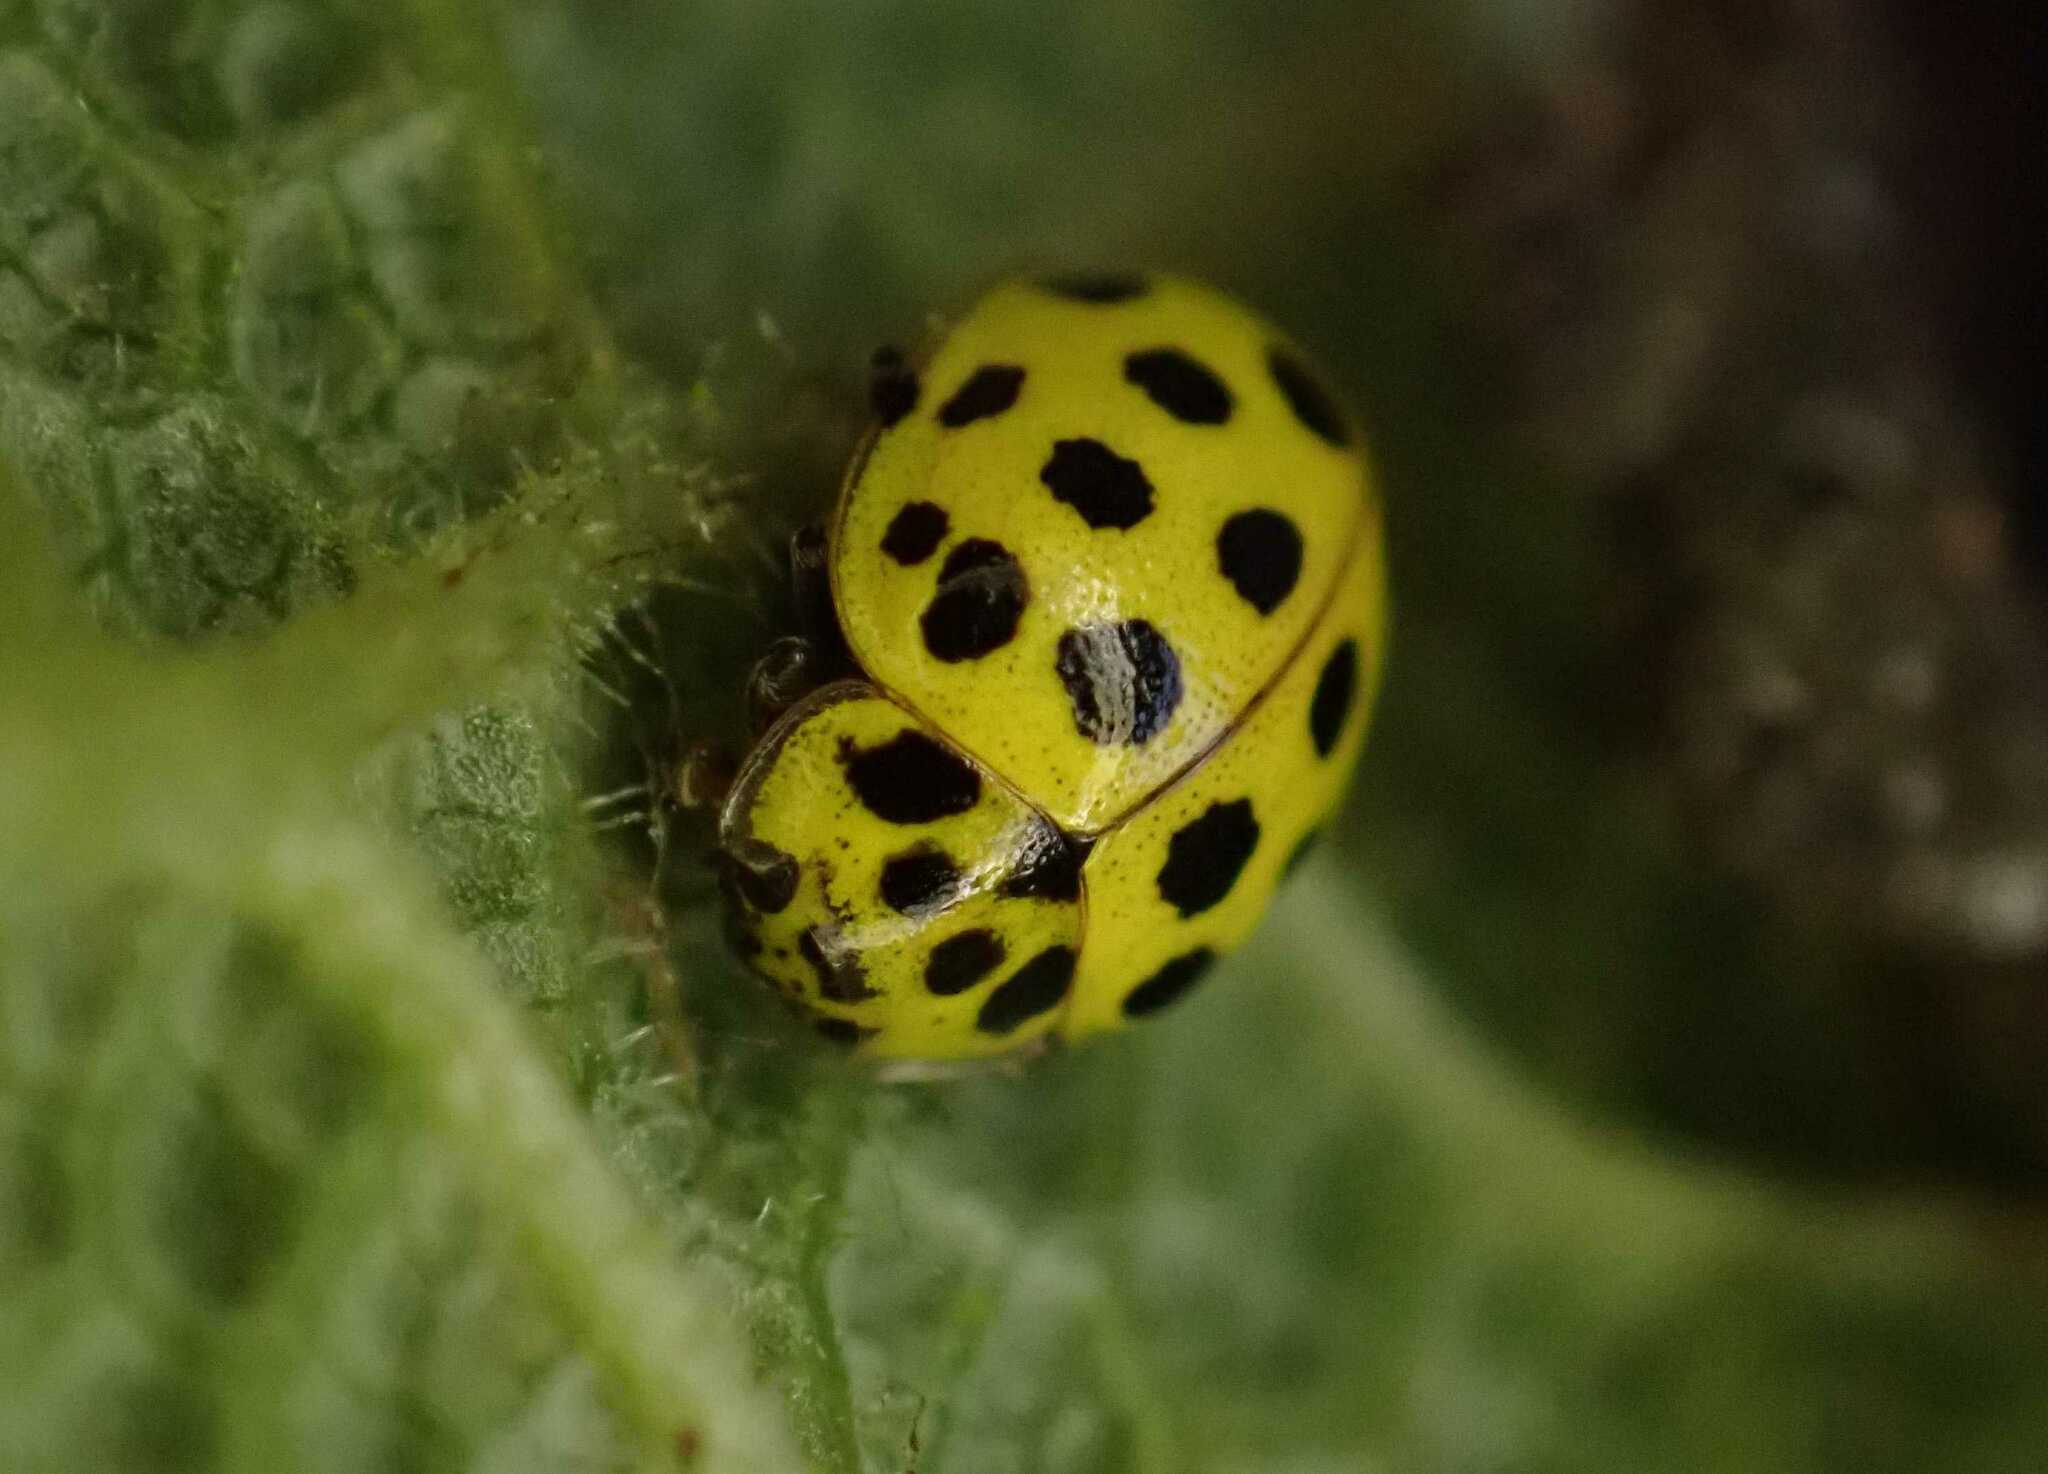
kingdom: Animalia
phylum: Arthropoda
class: Insecta
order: Coleoptera
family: Coccinellidae
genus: Psyllobora
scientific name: Psyllobora vigintiduopunctata
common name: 22-spot ladybird
